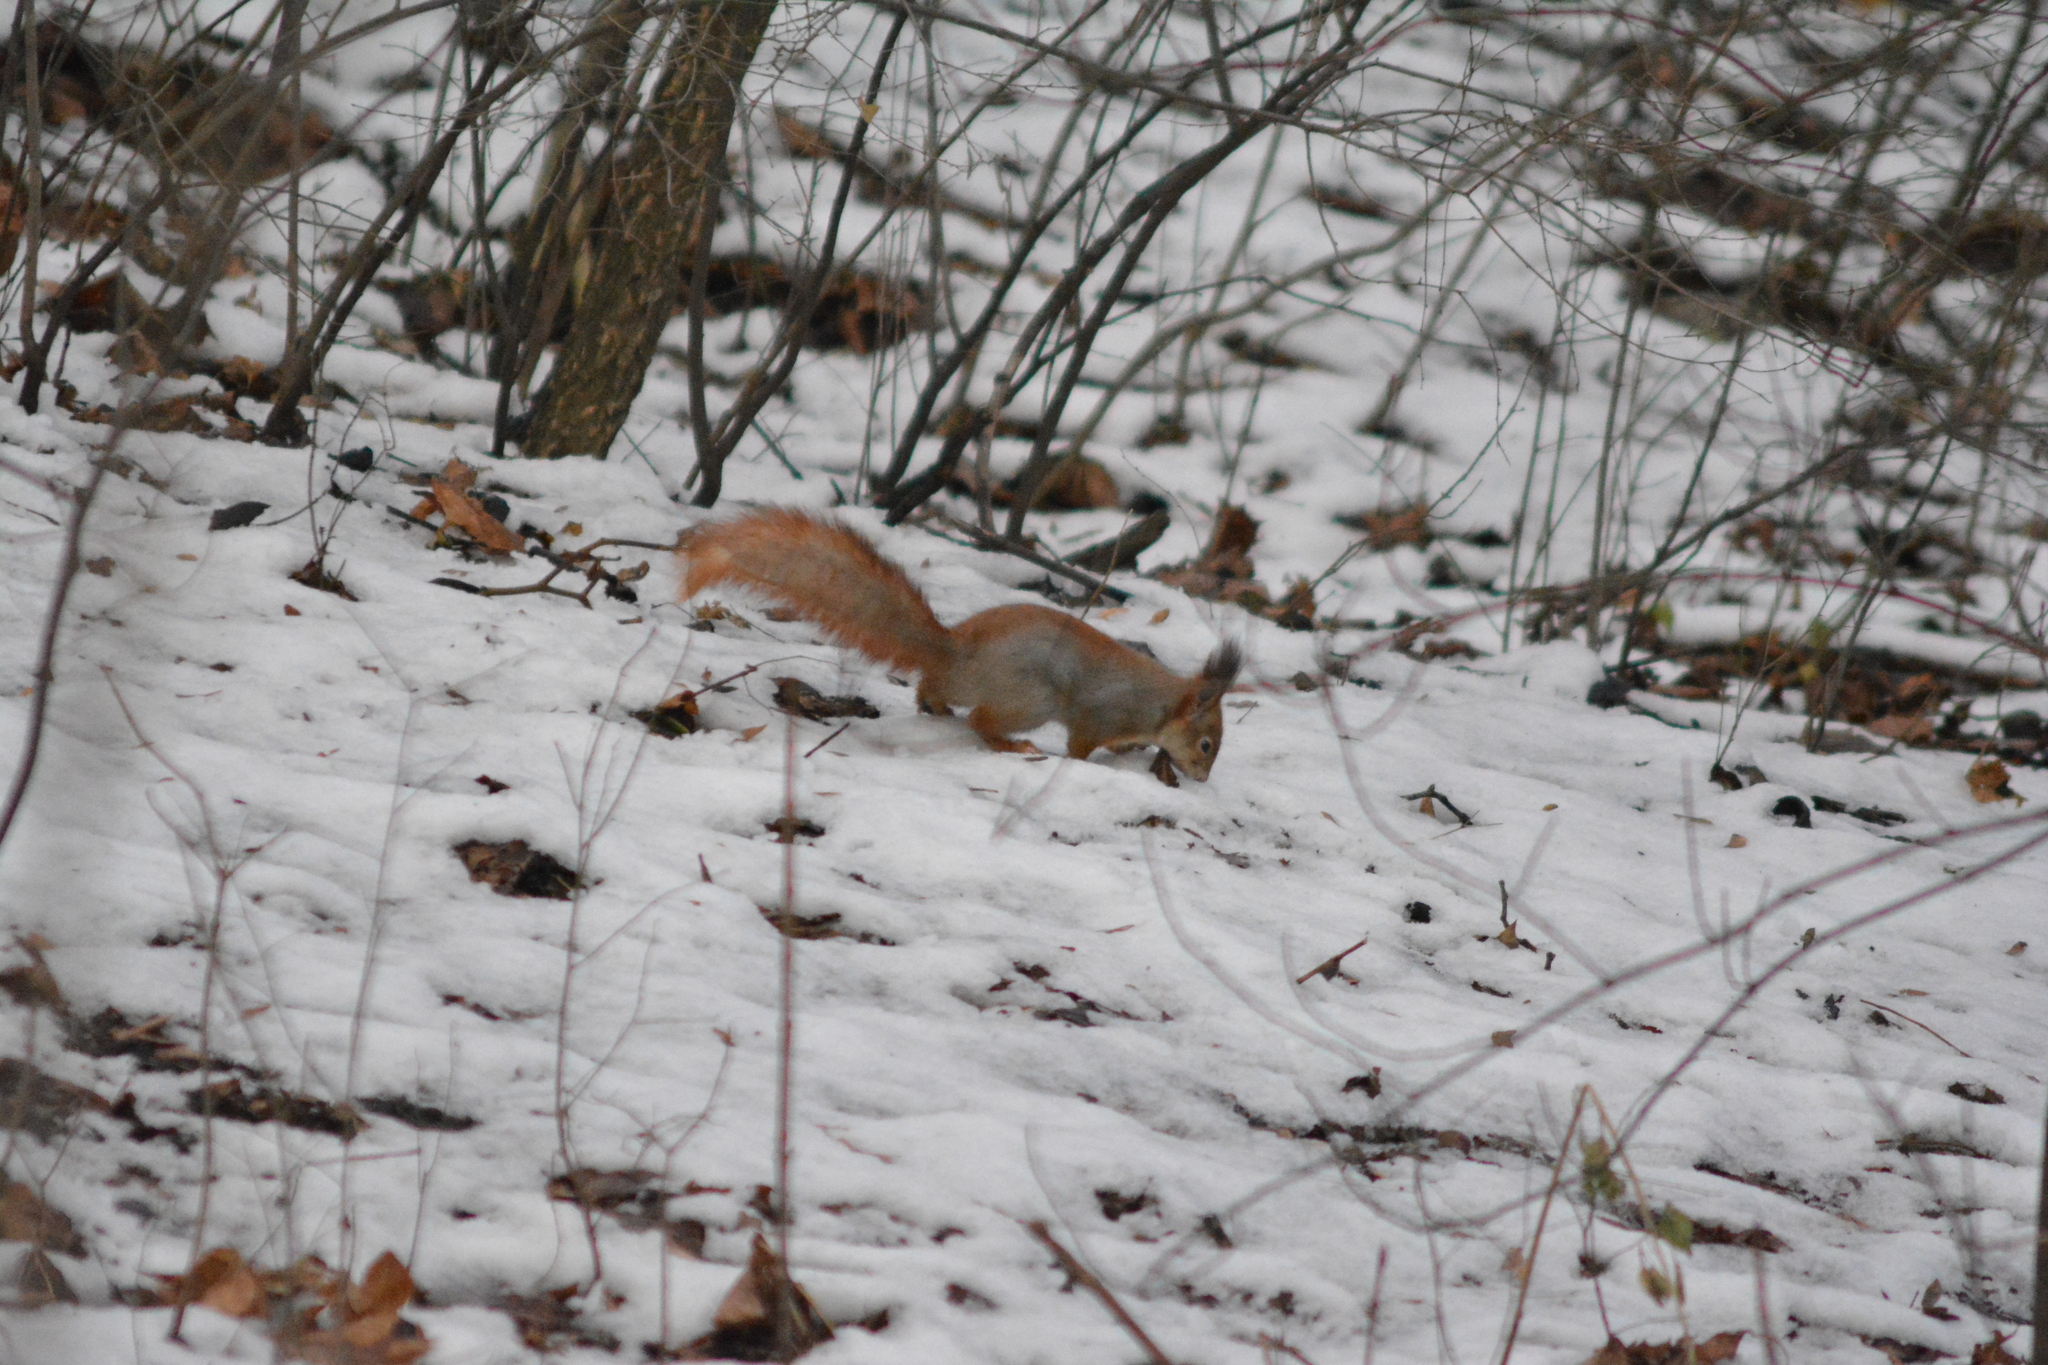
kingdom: Animalia
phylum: Chordata
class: Mammalia
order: Rodentia
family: Sciuridae
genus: Sciurus
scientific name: Sciurus vulgaris
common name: Eurasian red squirrel
